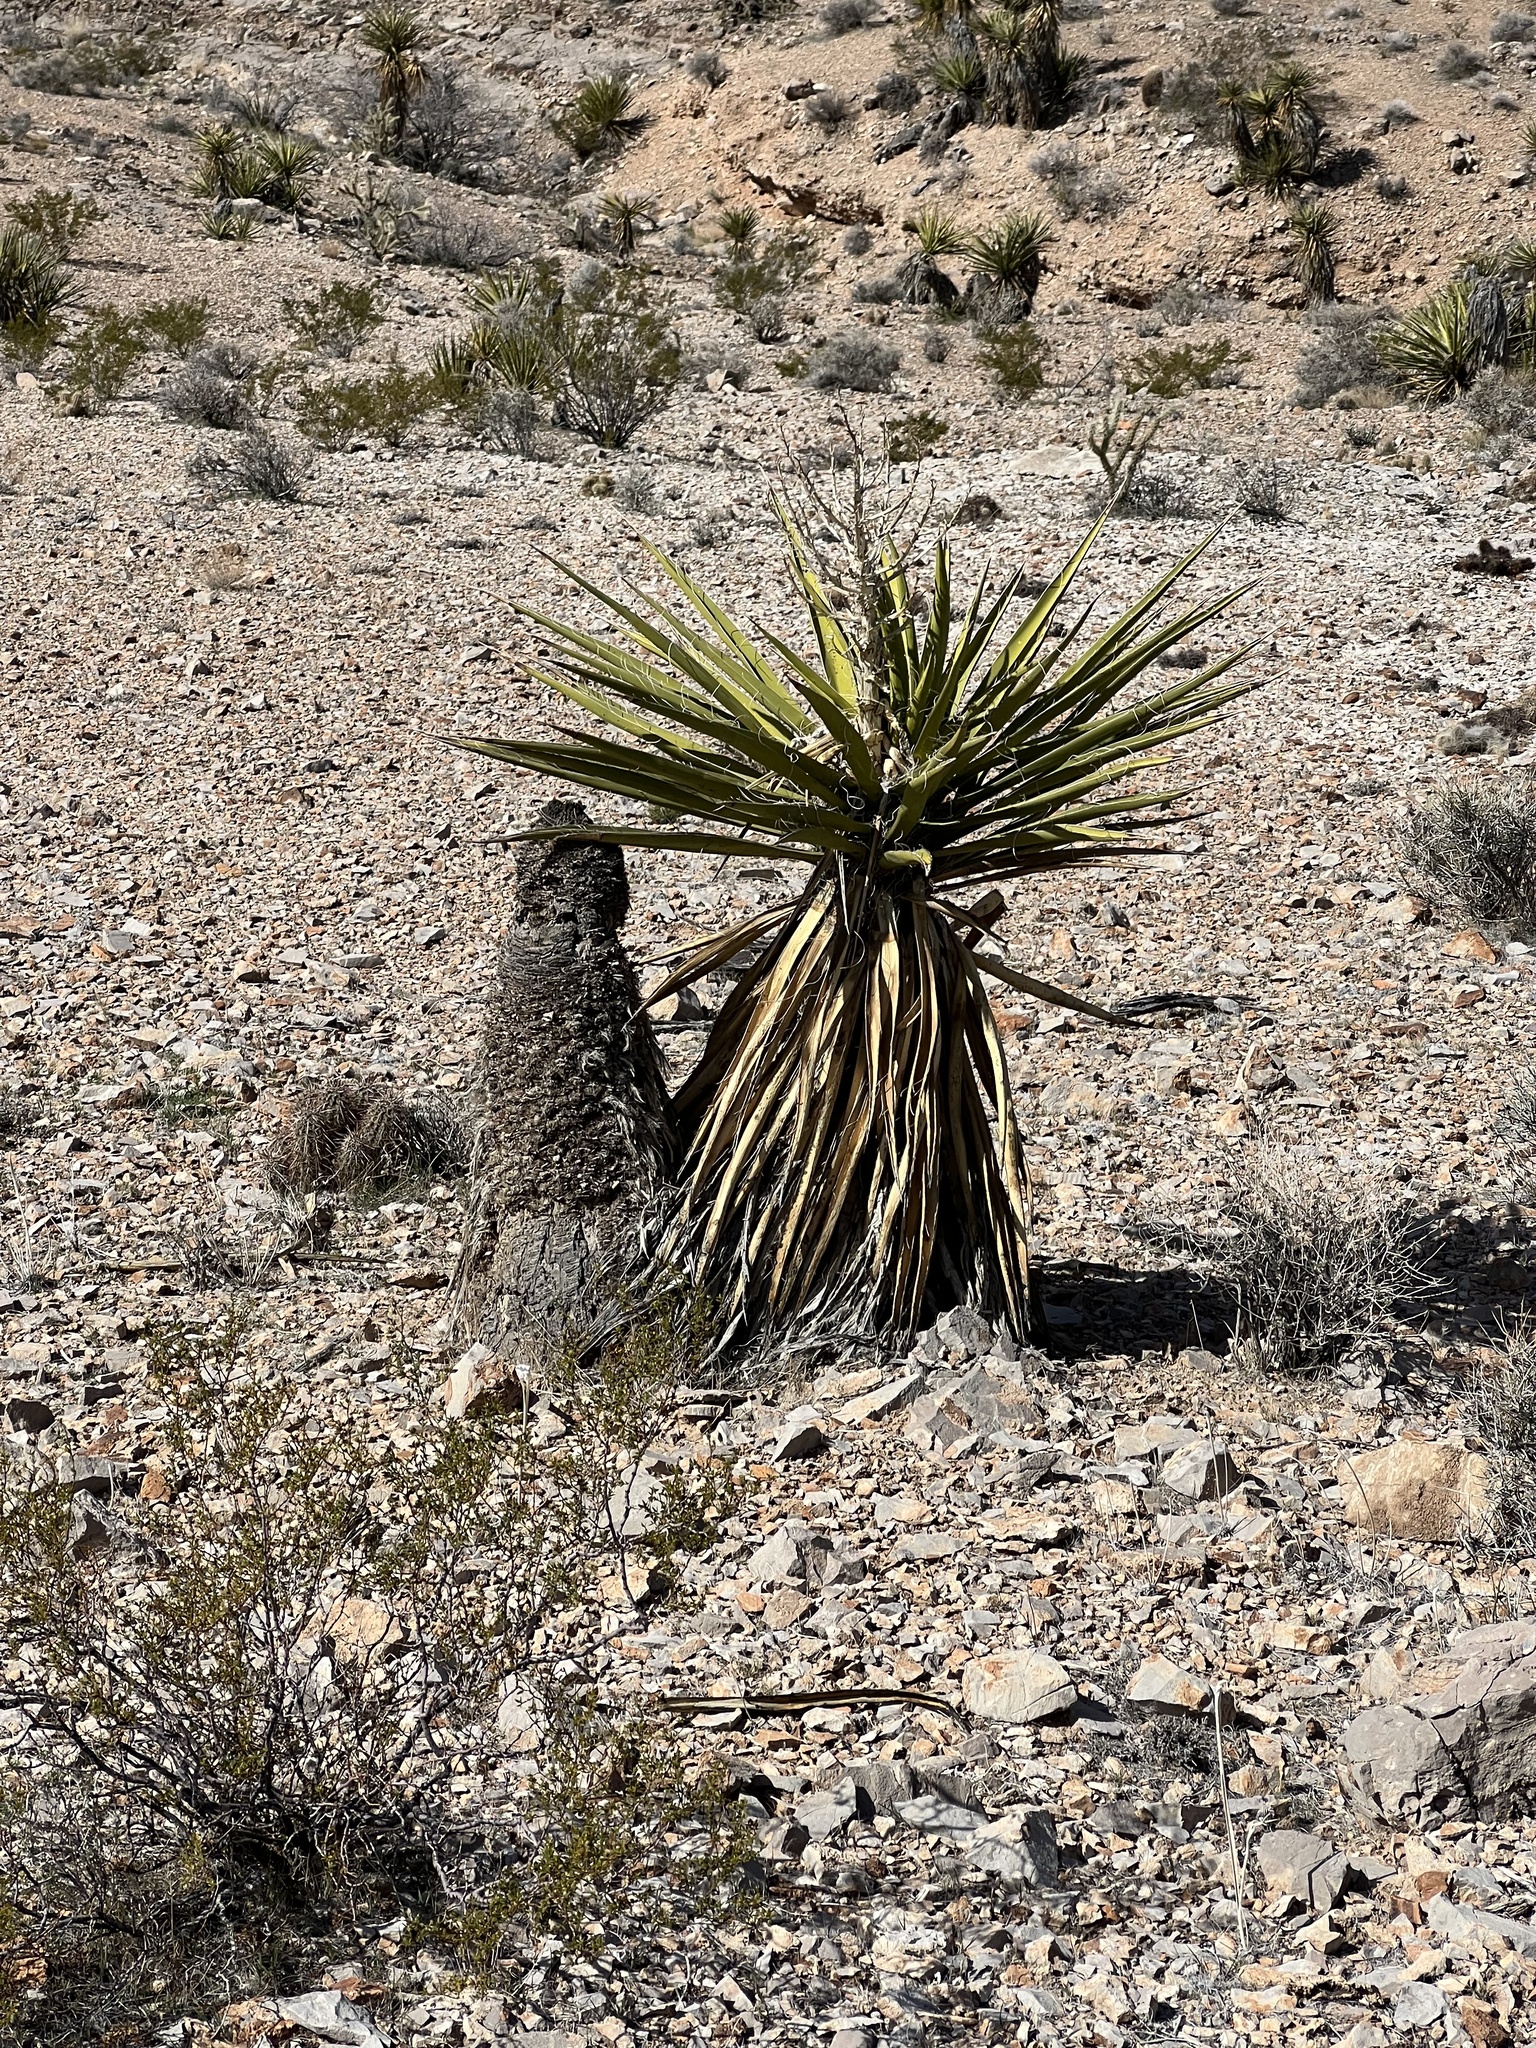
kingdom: Plantae
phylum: Tracheophyta
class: Liliopsida
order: Asparagales
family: Asparagaceae
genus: Yucca
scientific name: Yucca schidigera
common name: Mojave yucca
